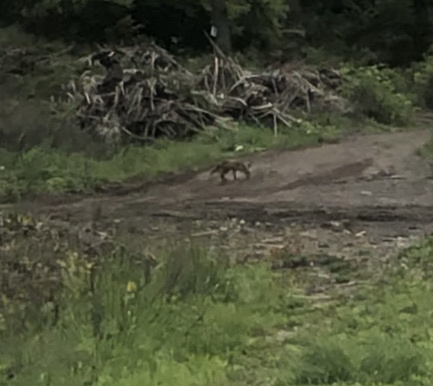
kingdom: Animalia
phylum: Chordata
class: Mammalia
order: Carnivora
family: Canidae
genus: Vulpes
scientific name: Vulpes vulpes
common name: Red fox
